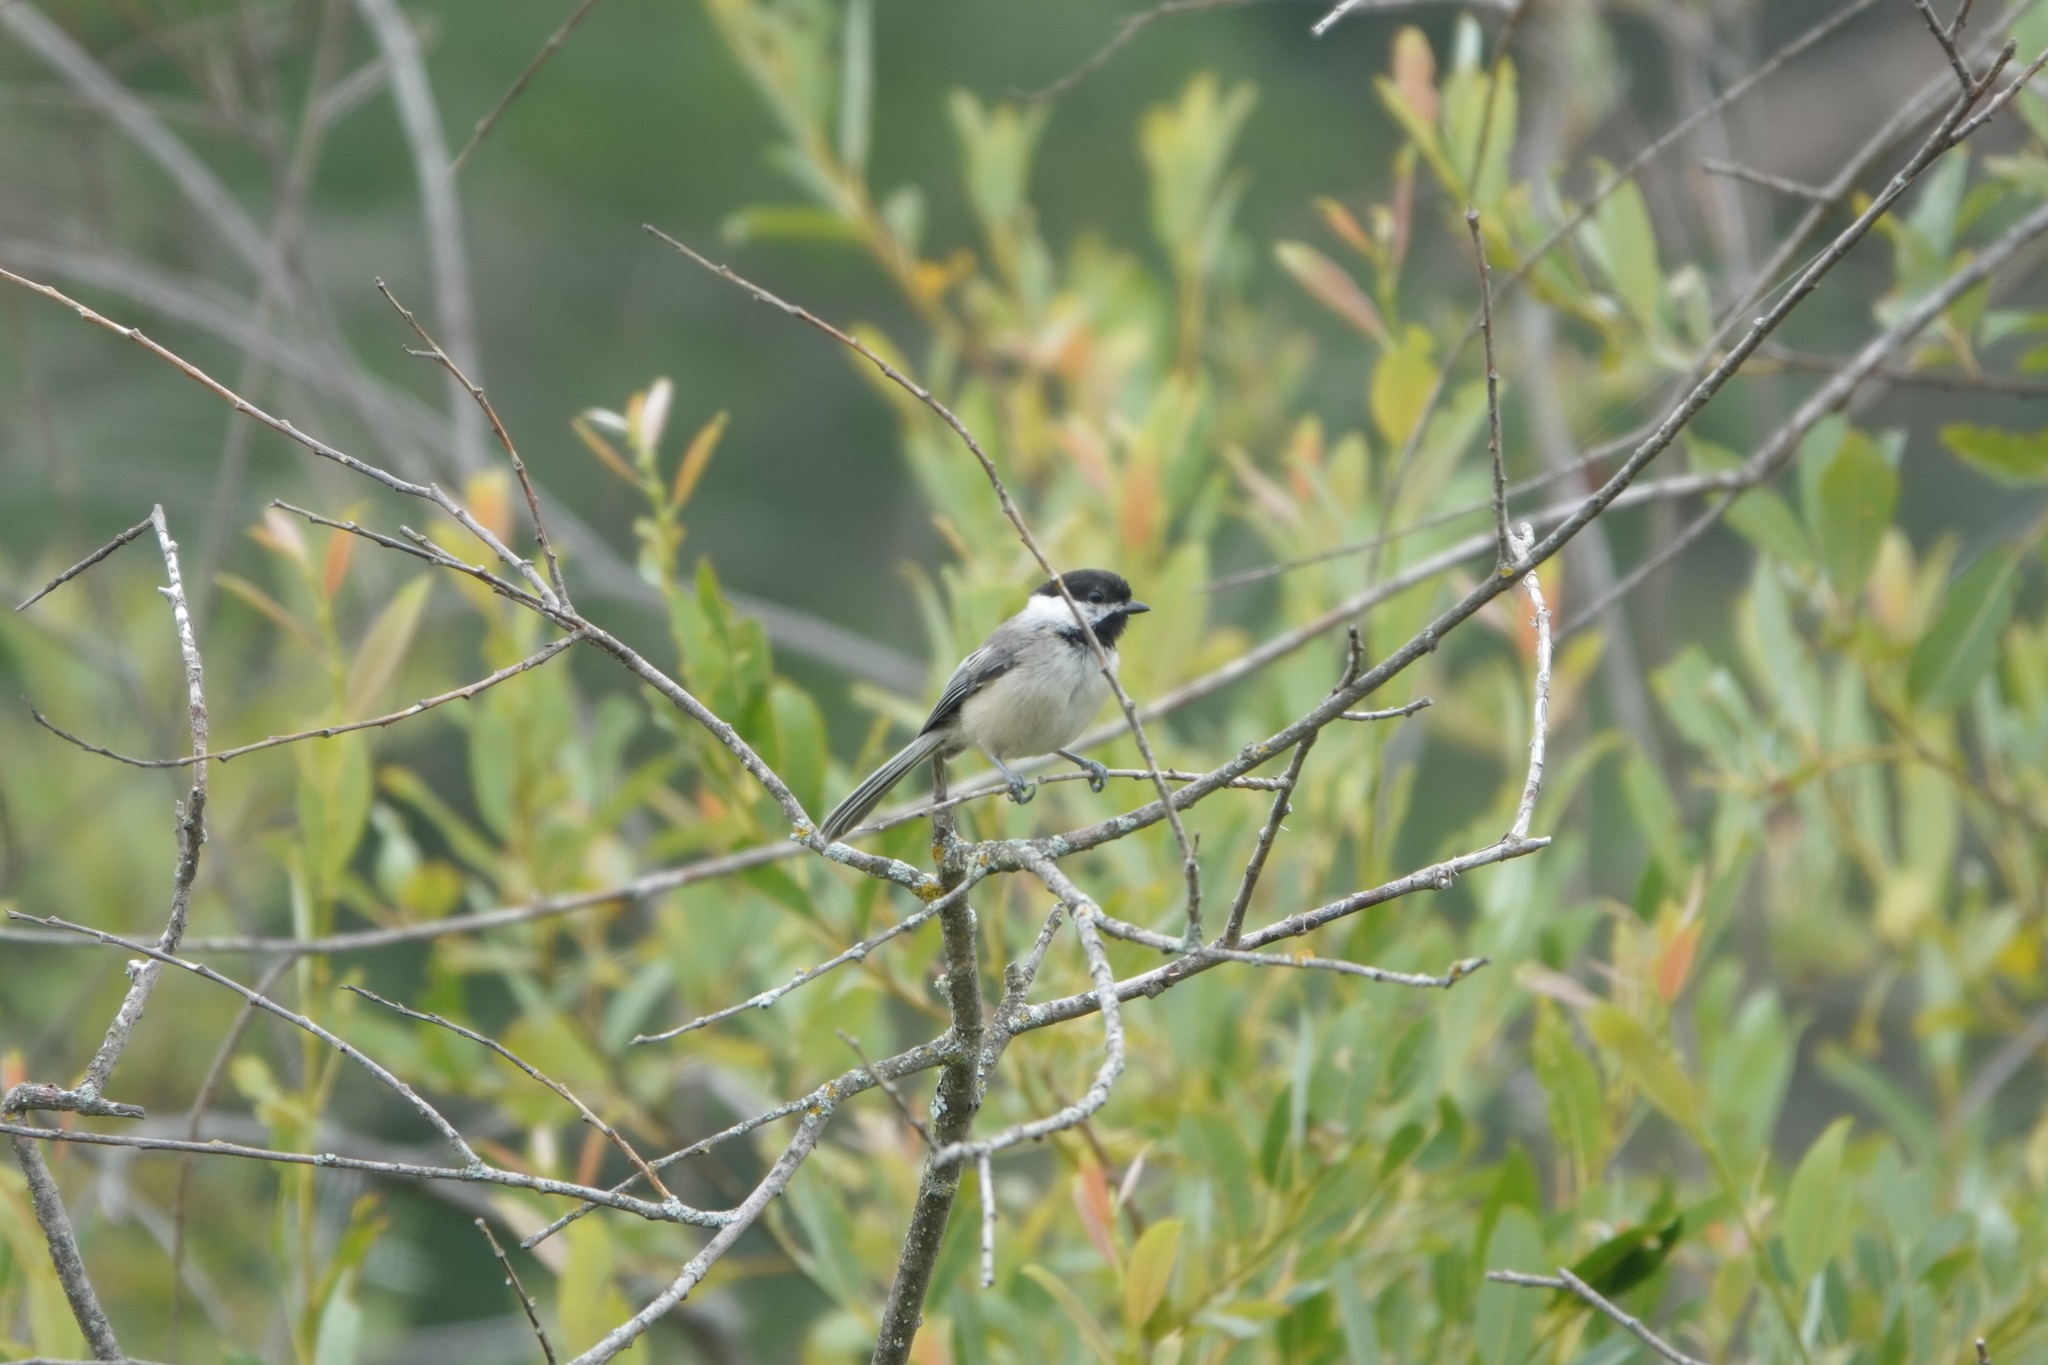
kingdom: Animalia
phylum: Chordata
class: Aves
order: Passeriformes
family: Paridae
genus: Poecile
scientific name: Poecile atricapillus
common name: Black-capped chickadee
